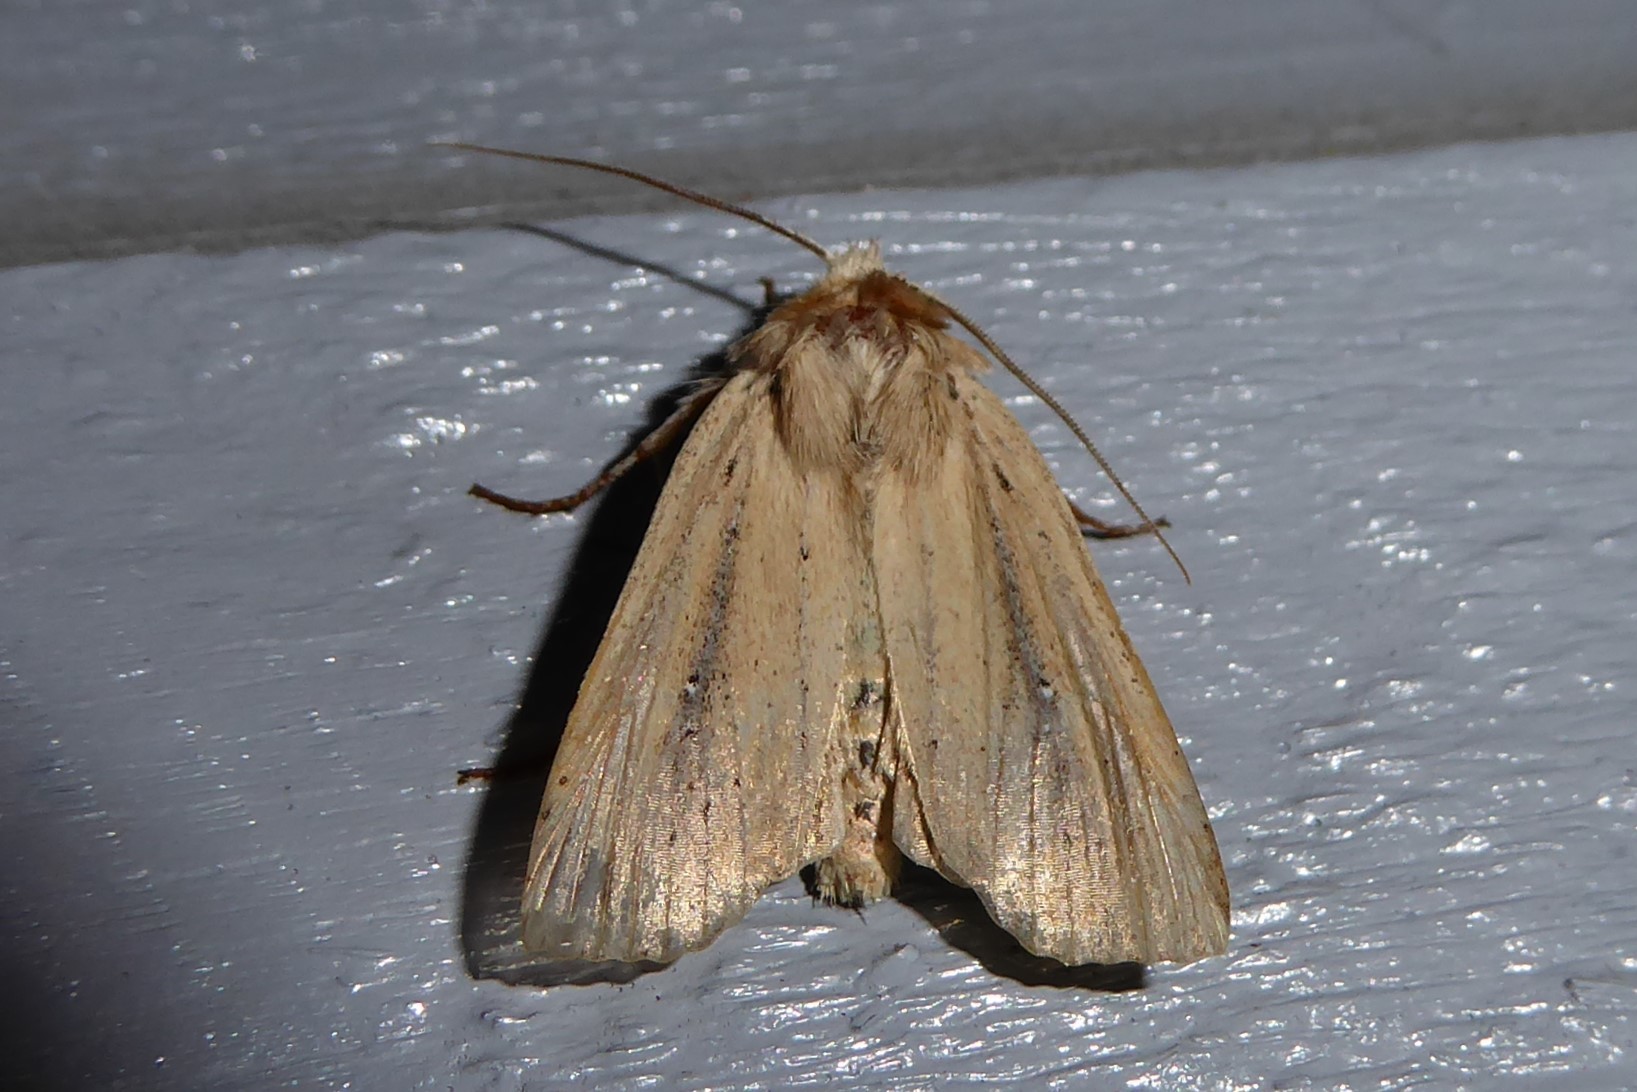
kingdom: Animalia
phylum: Arthropoda
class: Insecta
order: Lepidoptera
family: Noctuidae
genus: Ichneutica
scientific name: Ichneutica arotis
